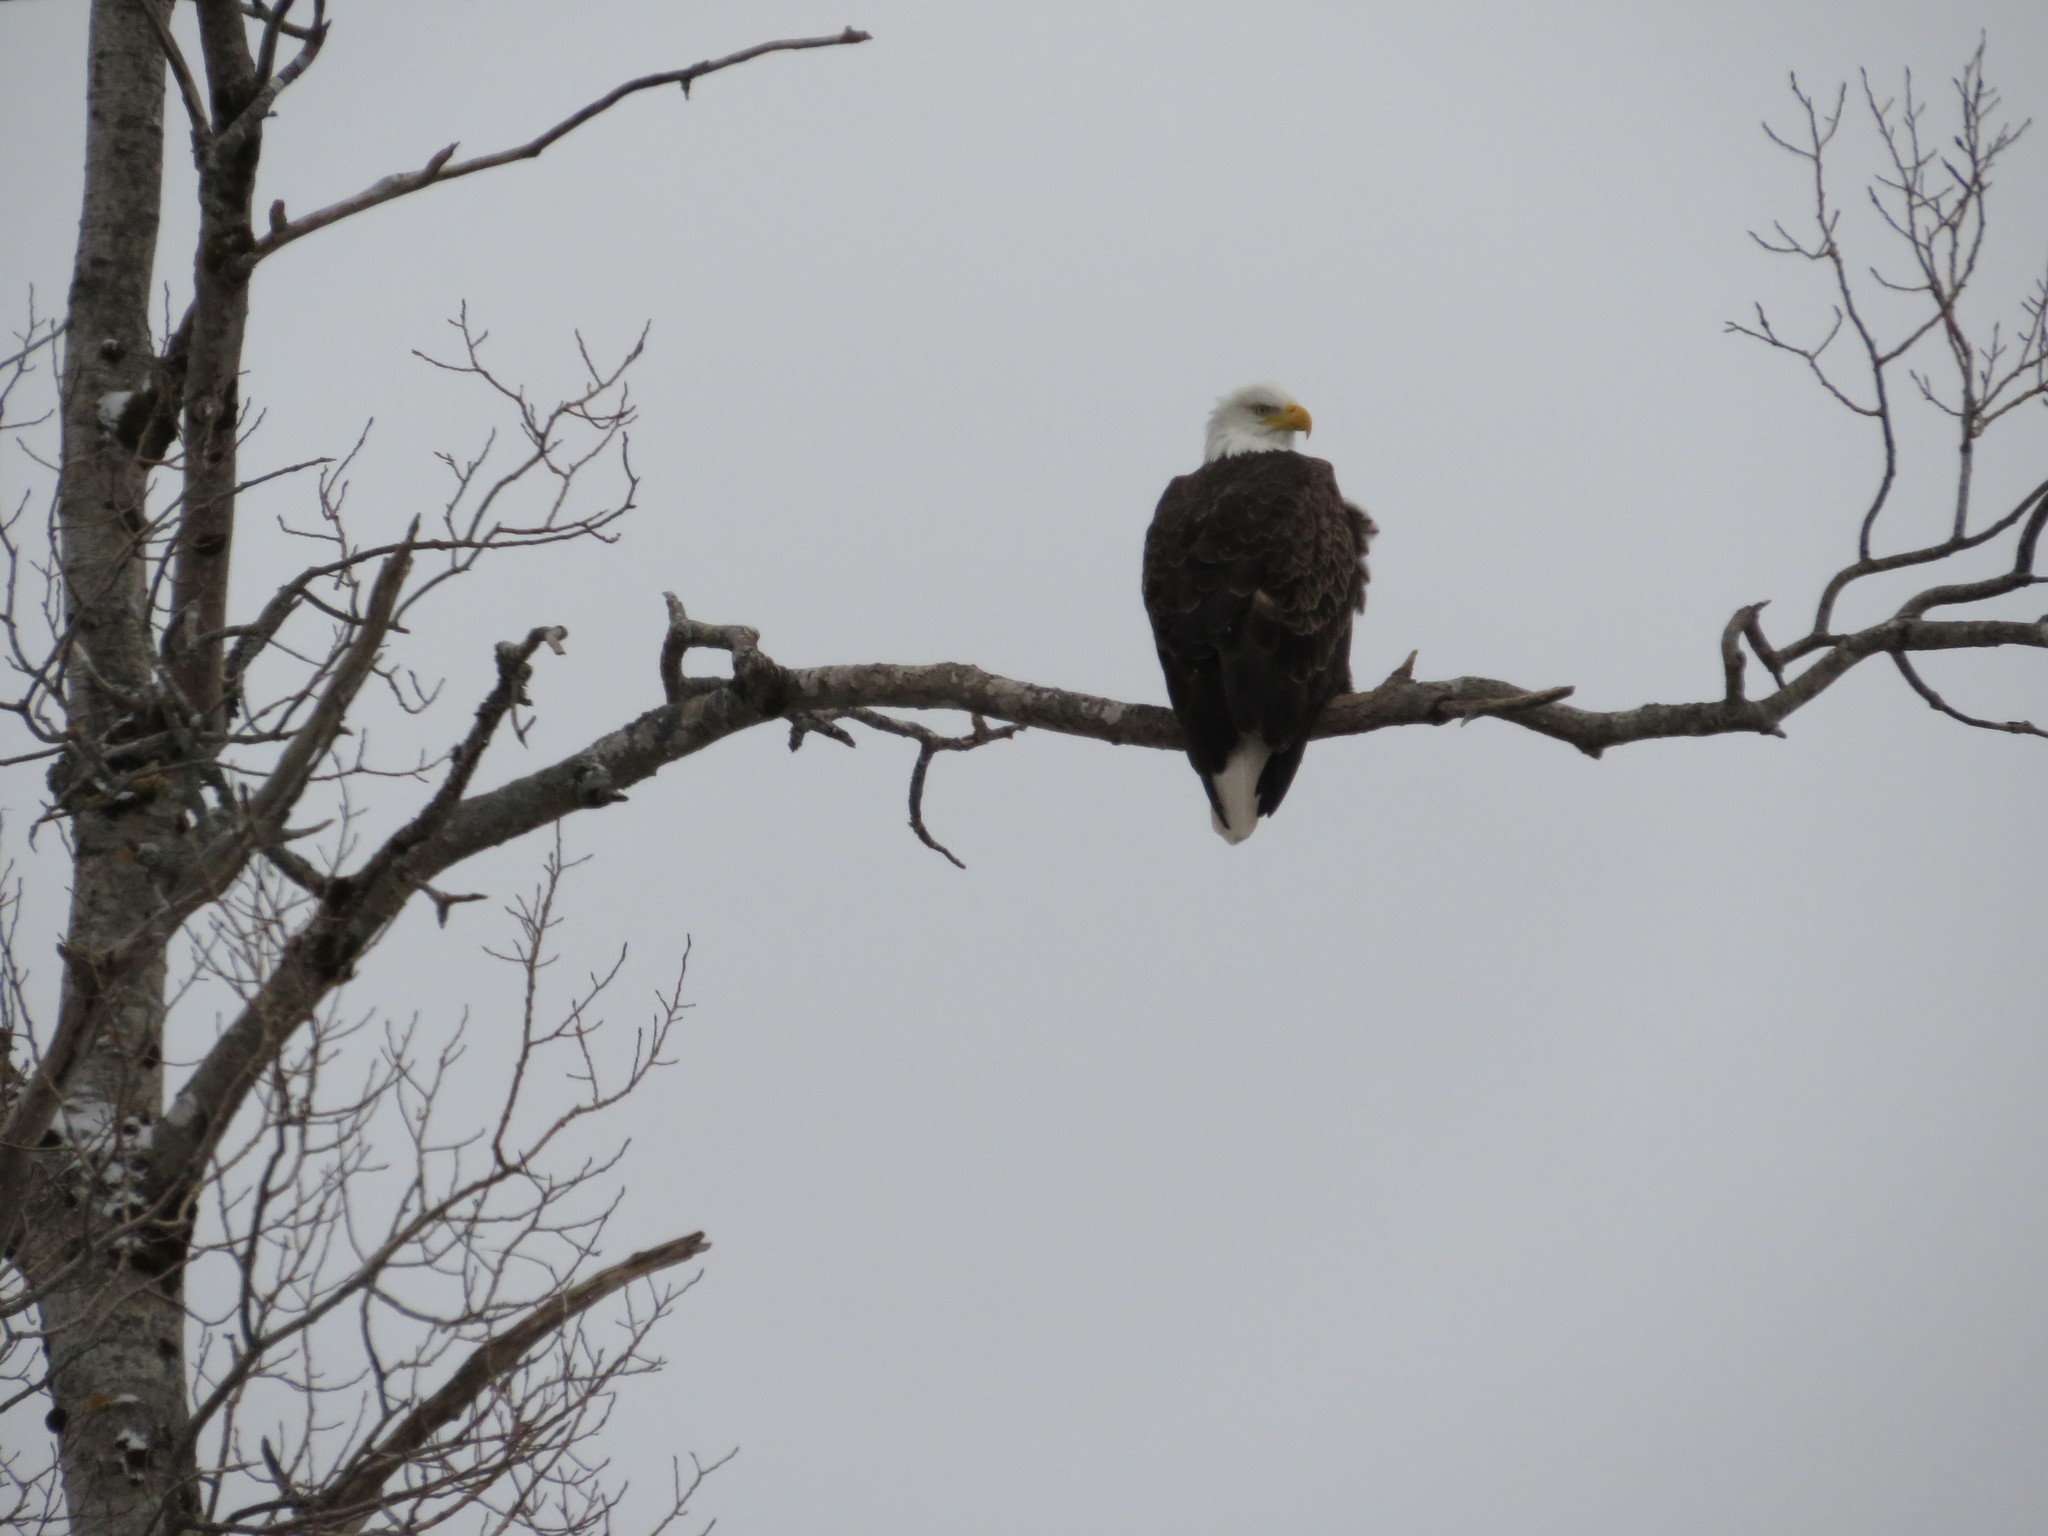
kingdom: Animalia
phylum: Chordata
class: Aves
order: Accipitriformes
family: Accipitridae
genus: Haliaeetus
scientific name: Haliaeetus leucocephalus
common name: Bald eagle
